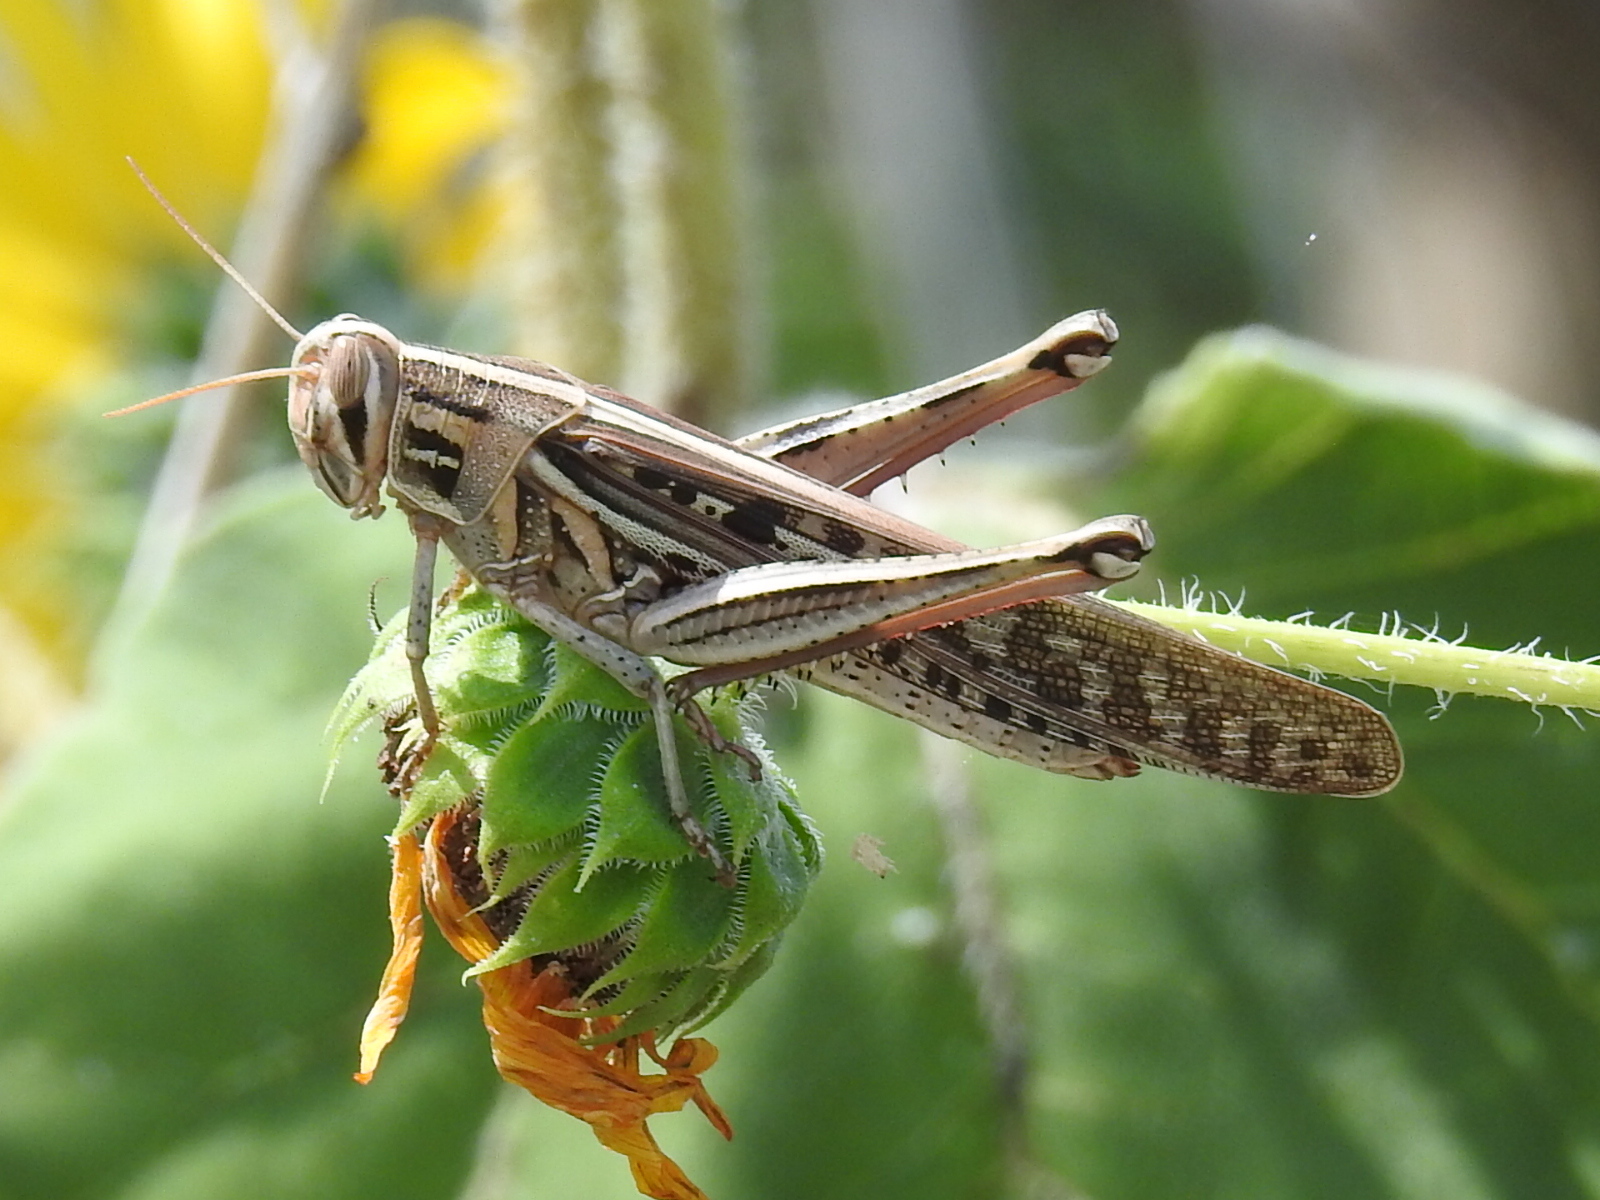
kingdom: Animalia
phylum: Arthropoda
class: Insecta
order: Orthoptera
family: Acrididae
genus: Schistocerca
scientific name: Schistocerca americana
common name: American bird locust
